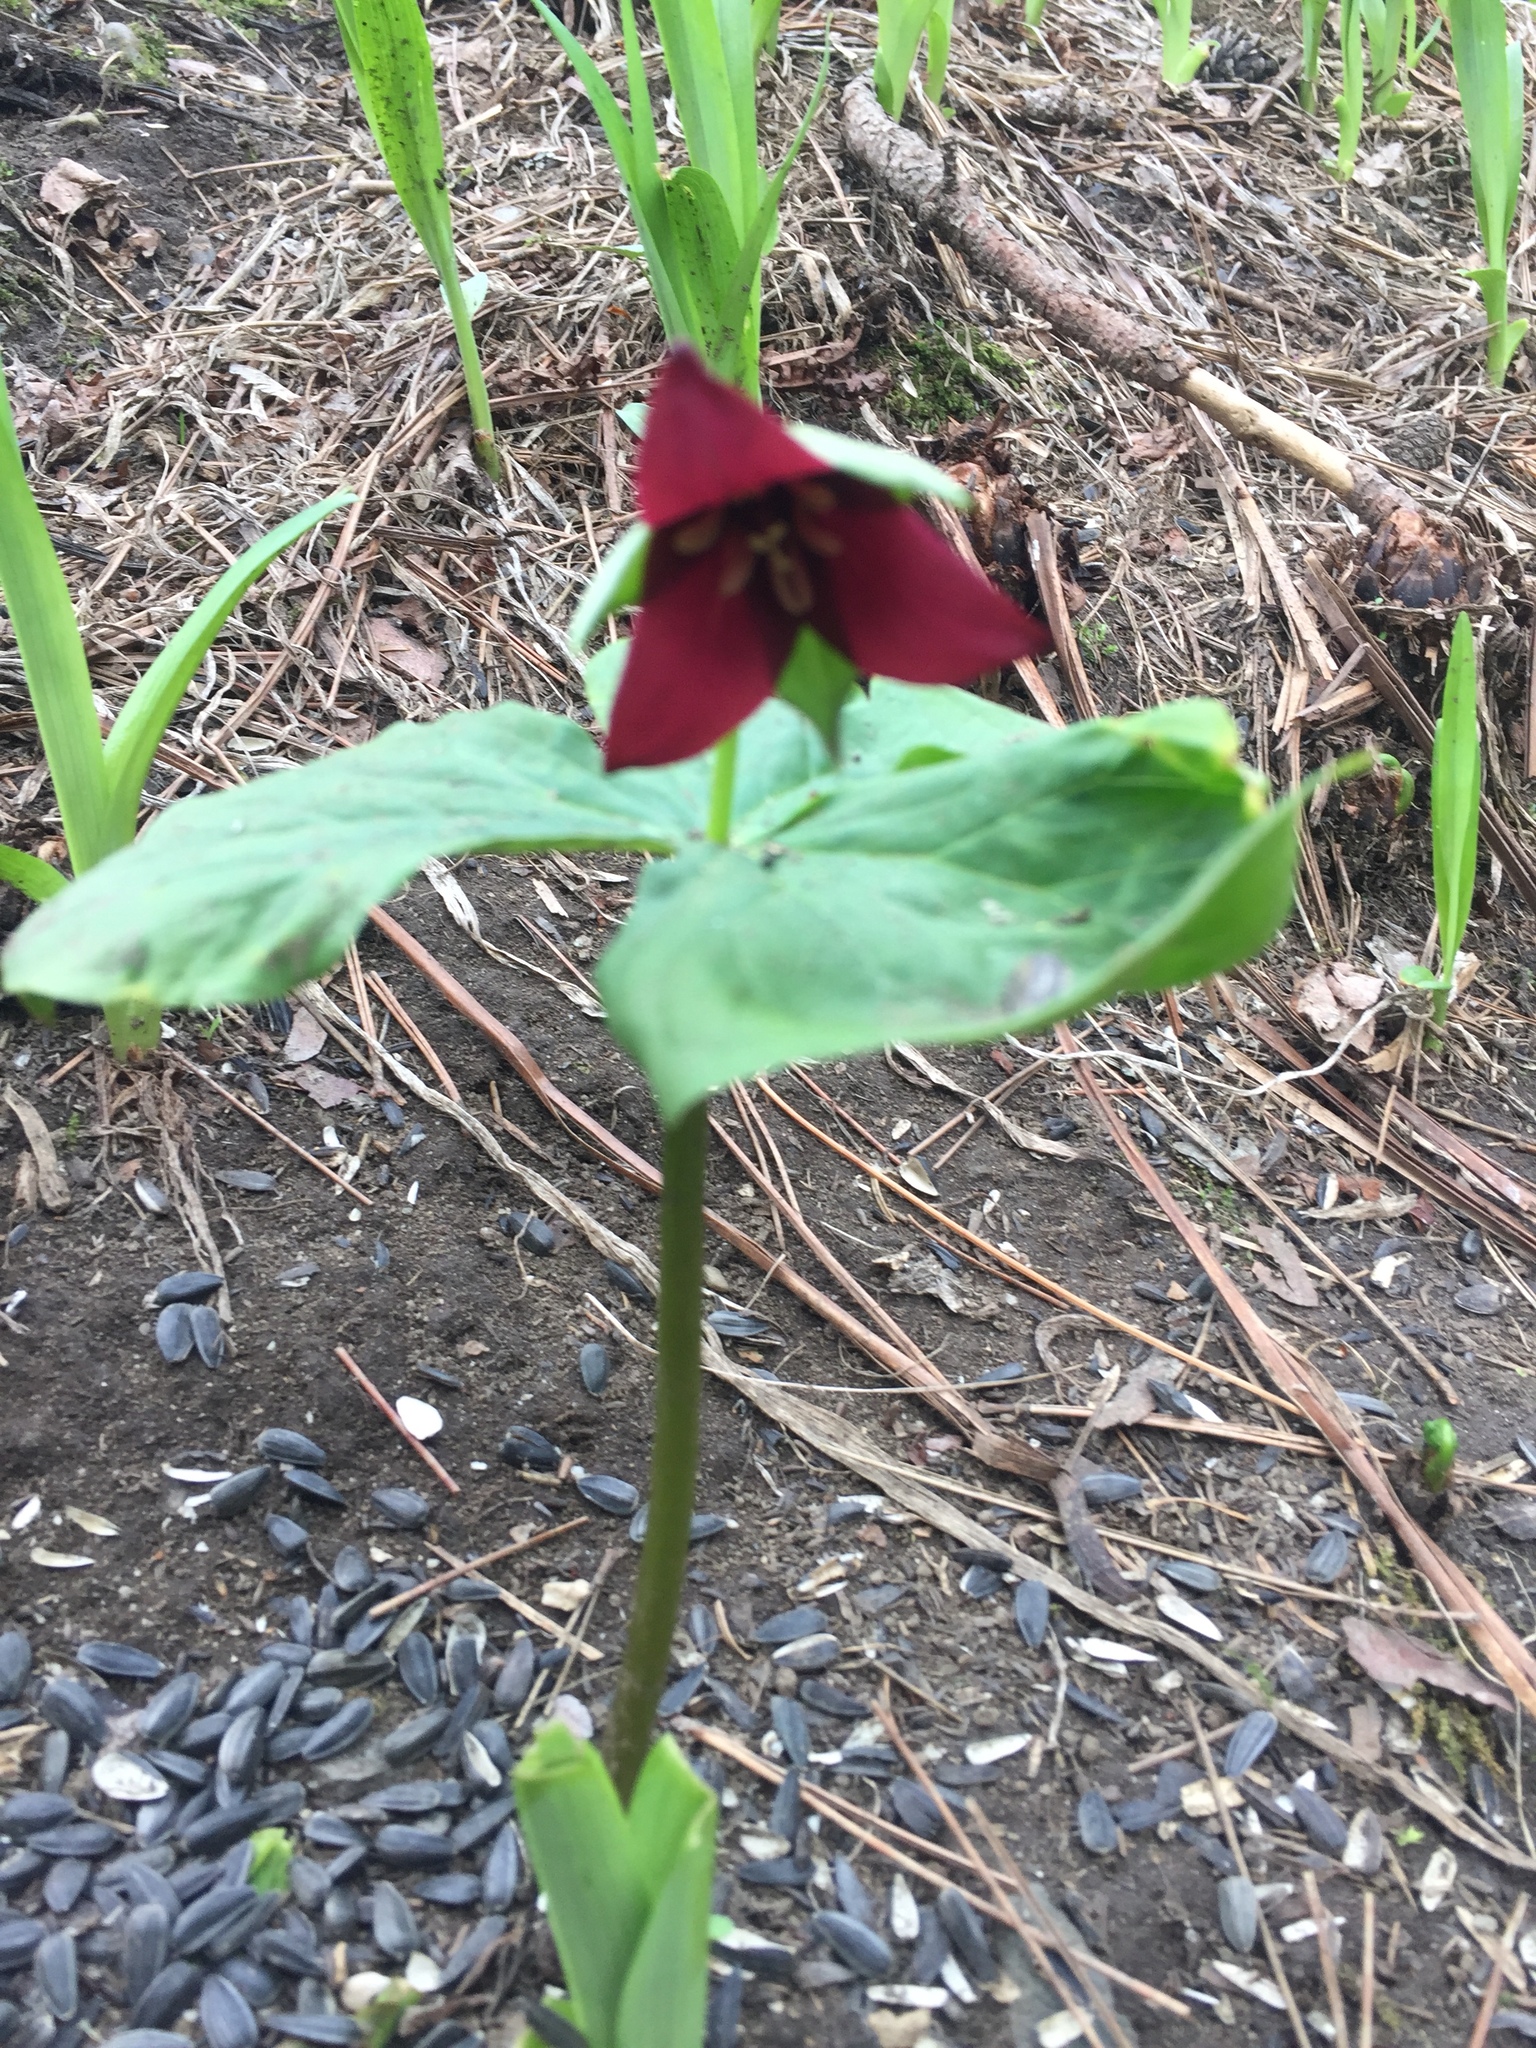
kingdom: Plantae
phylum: Tracheophyta
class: Liliopsida
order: Liliales
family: Melanthiaceae
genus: Trillium
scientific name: Trillium erectum
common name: Purple trillium
